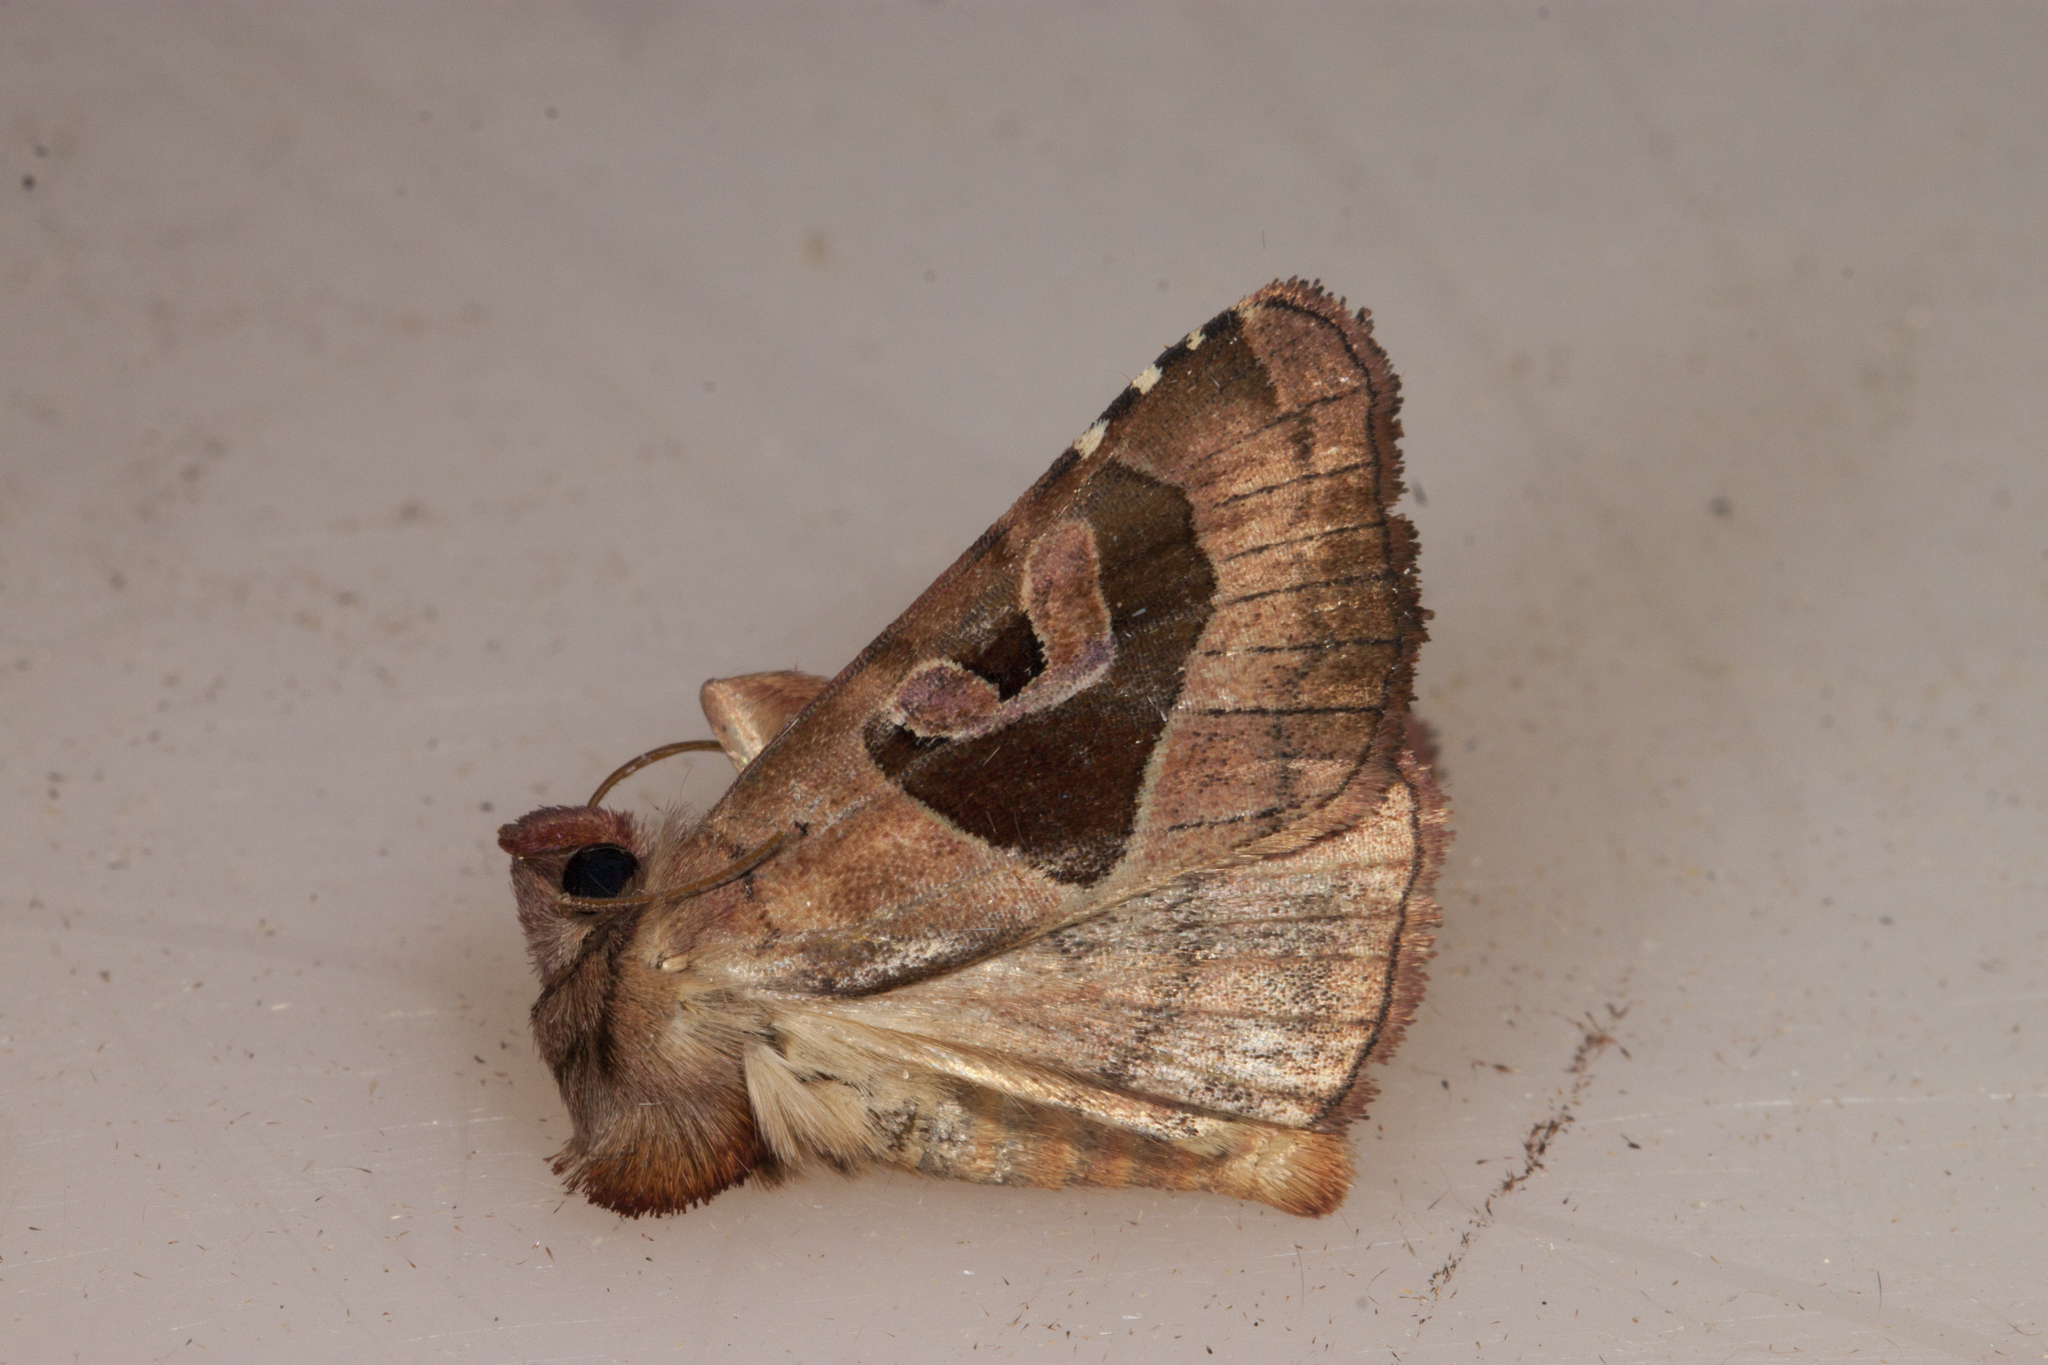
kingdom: Animalia
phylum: Arthropoda
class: Insecta
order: Lepidoptera
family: Noctuidae
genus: Conservula
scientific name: Conservula anodonta
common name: Sharp angle shades
